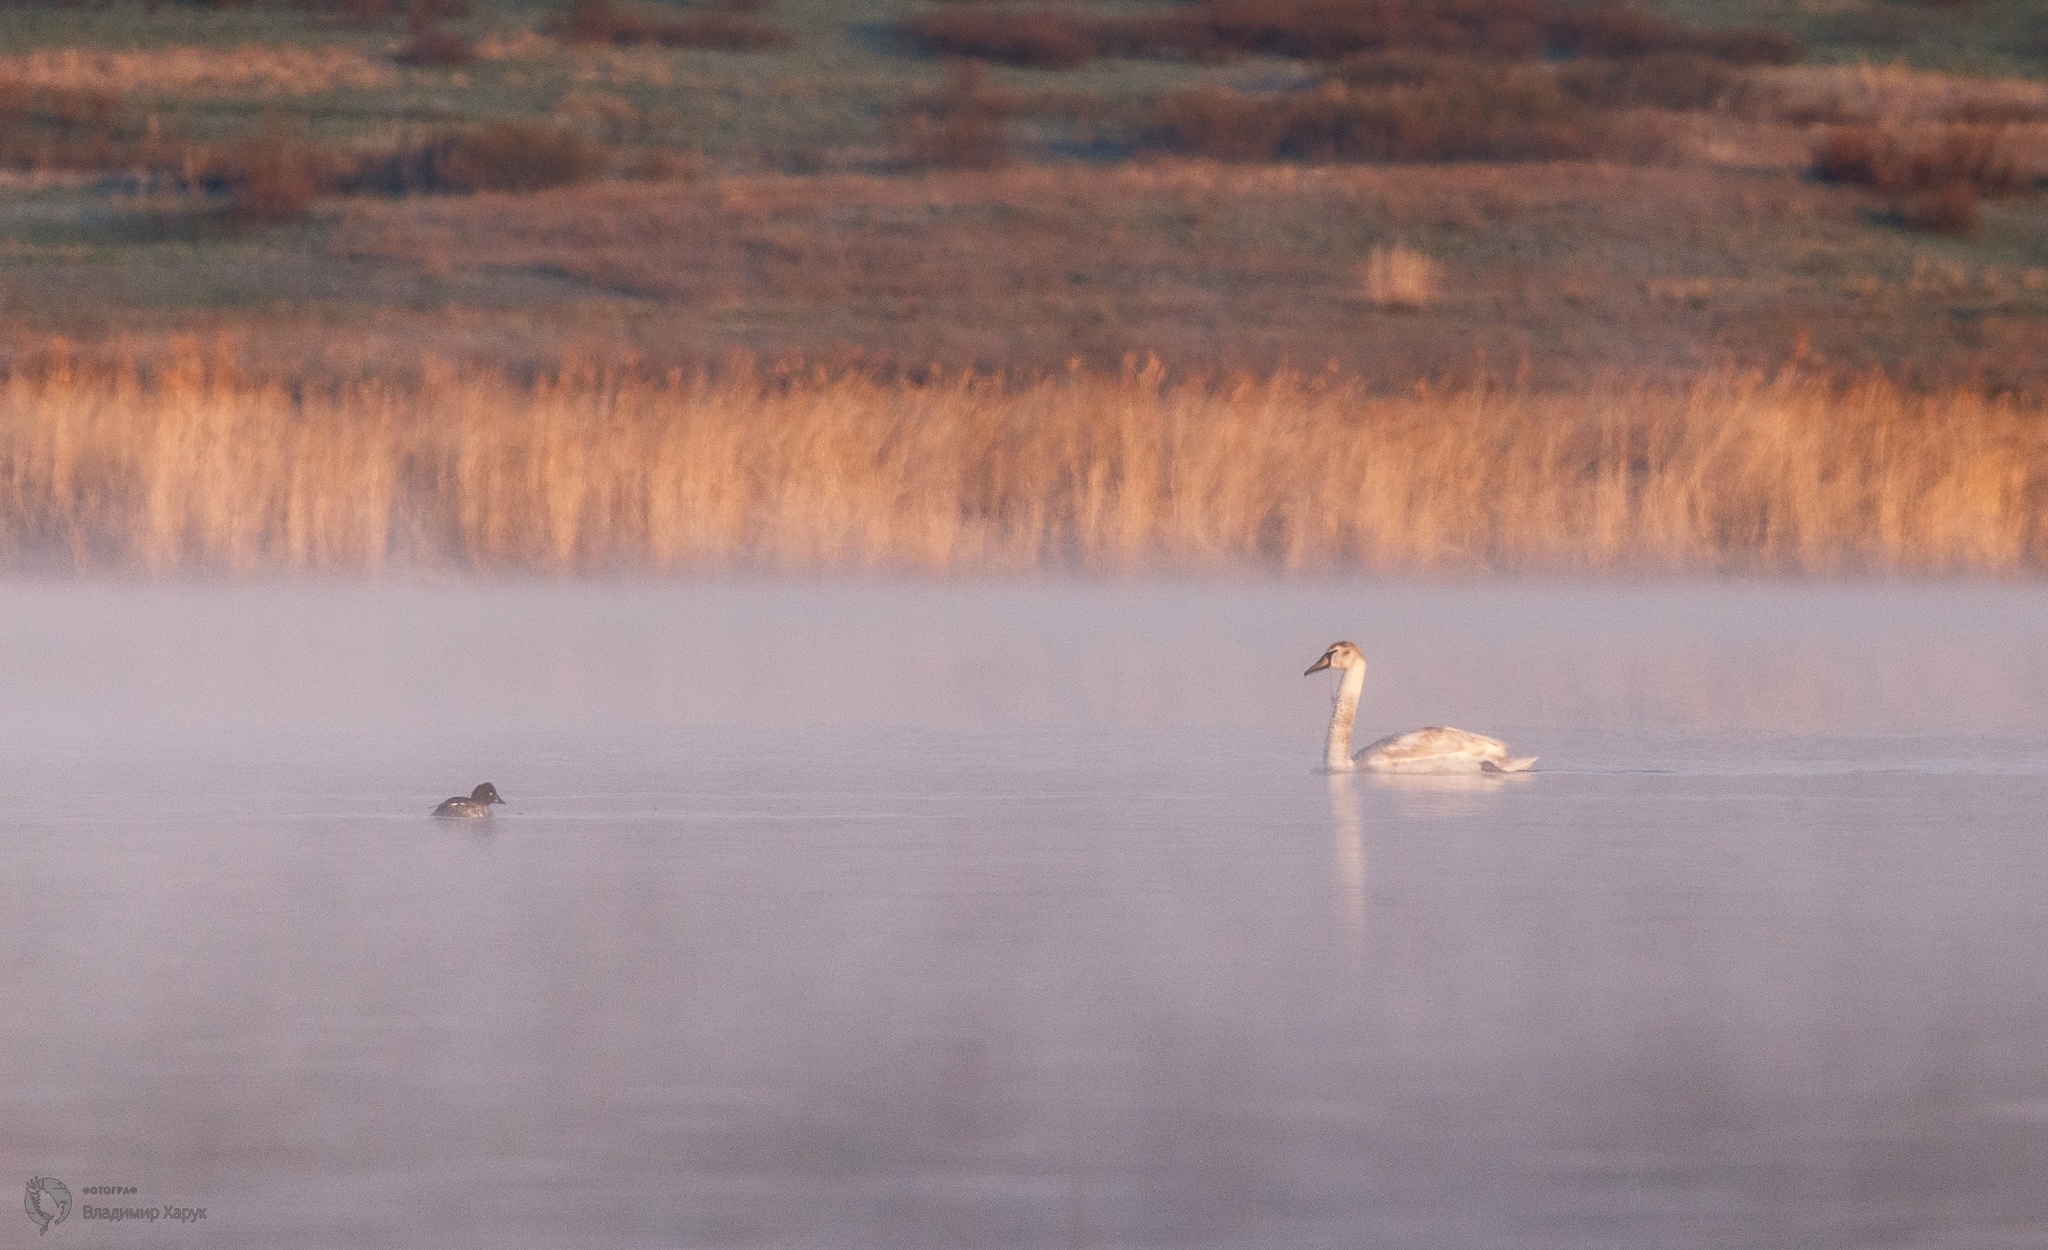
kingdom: Animalia
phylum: Chordata
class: Aves
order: Anseriformes
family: Anatidae
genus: Cygnus
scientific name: Cygnus olor
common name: Mute swan
